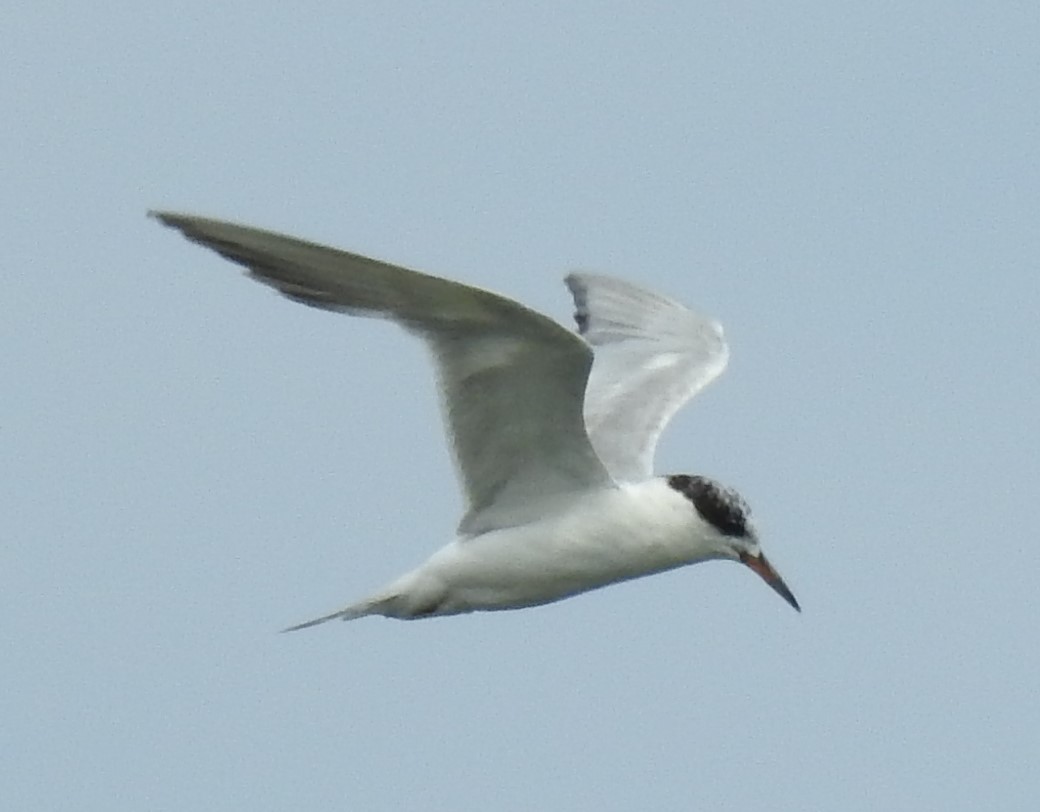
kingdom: Animalia
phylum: Chordata
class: Aves
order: Charadriiformes
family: Laridae
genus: Sterna
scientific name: Sterna forsteri
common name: Forster's tern
